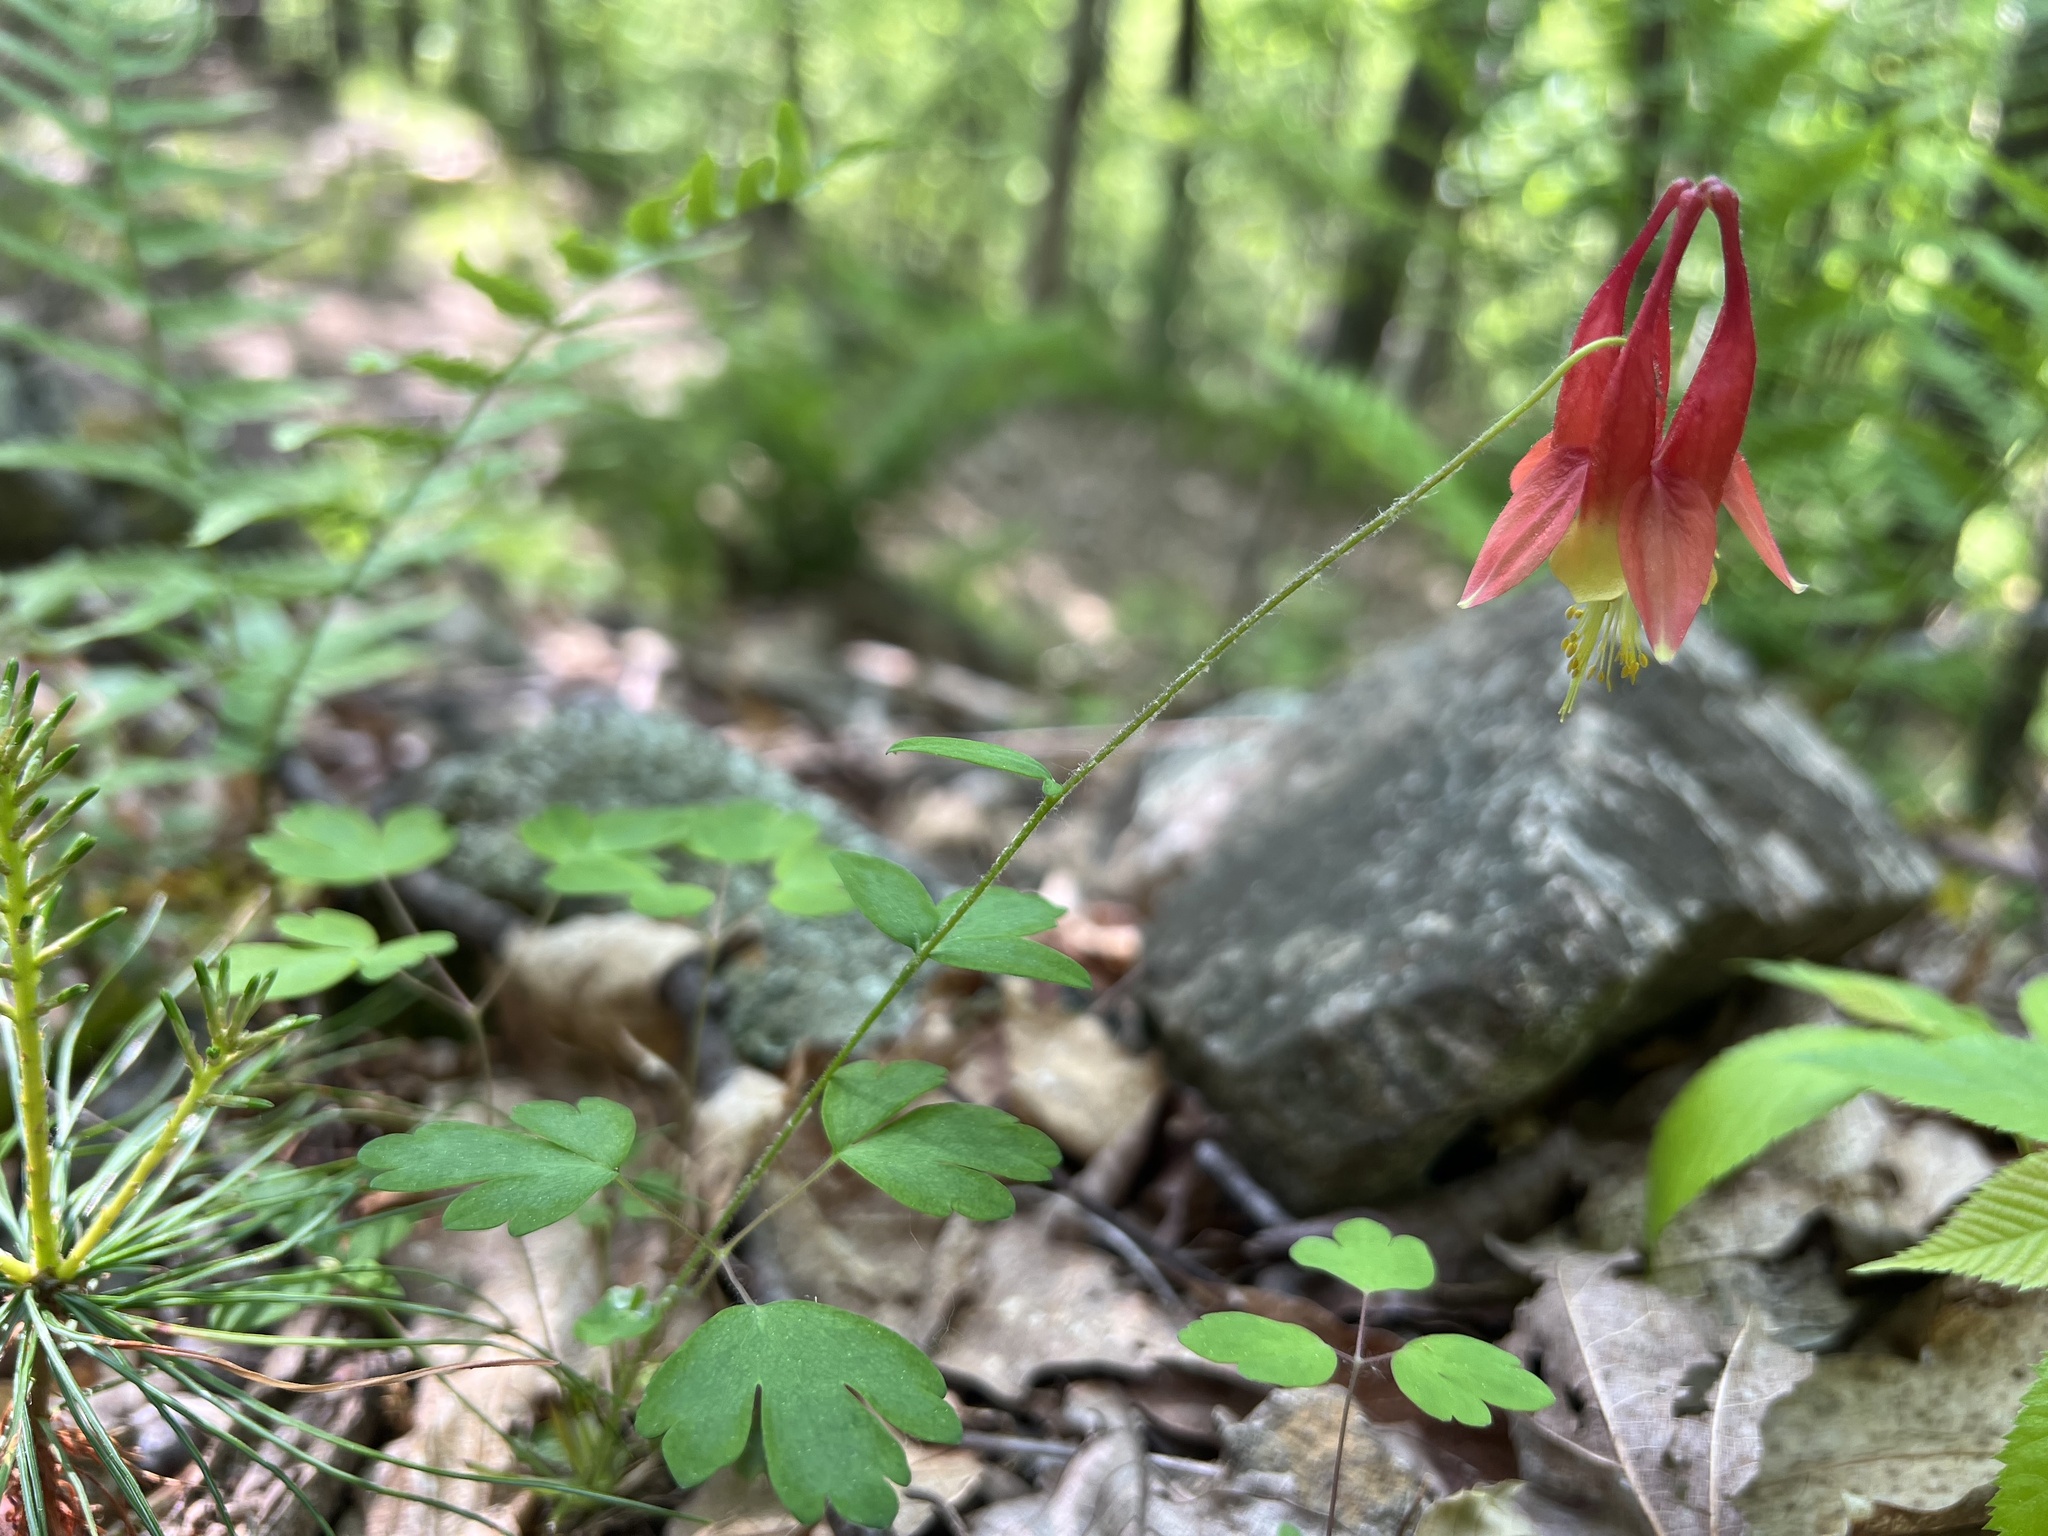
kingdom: Plantae
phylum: Tracheophyta
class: Magnoliopsida
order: Ranunculales
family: Ranunculaceae
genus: Aquilegia
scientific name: Aquilegia canadensis
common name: American columbine
